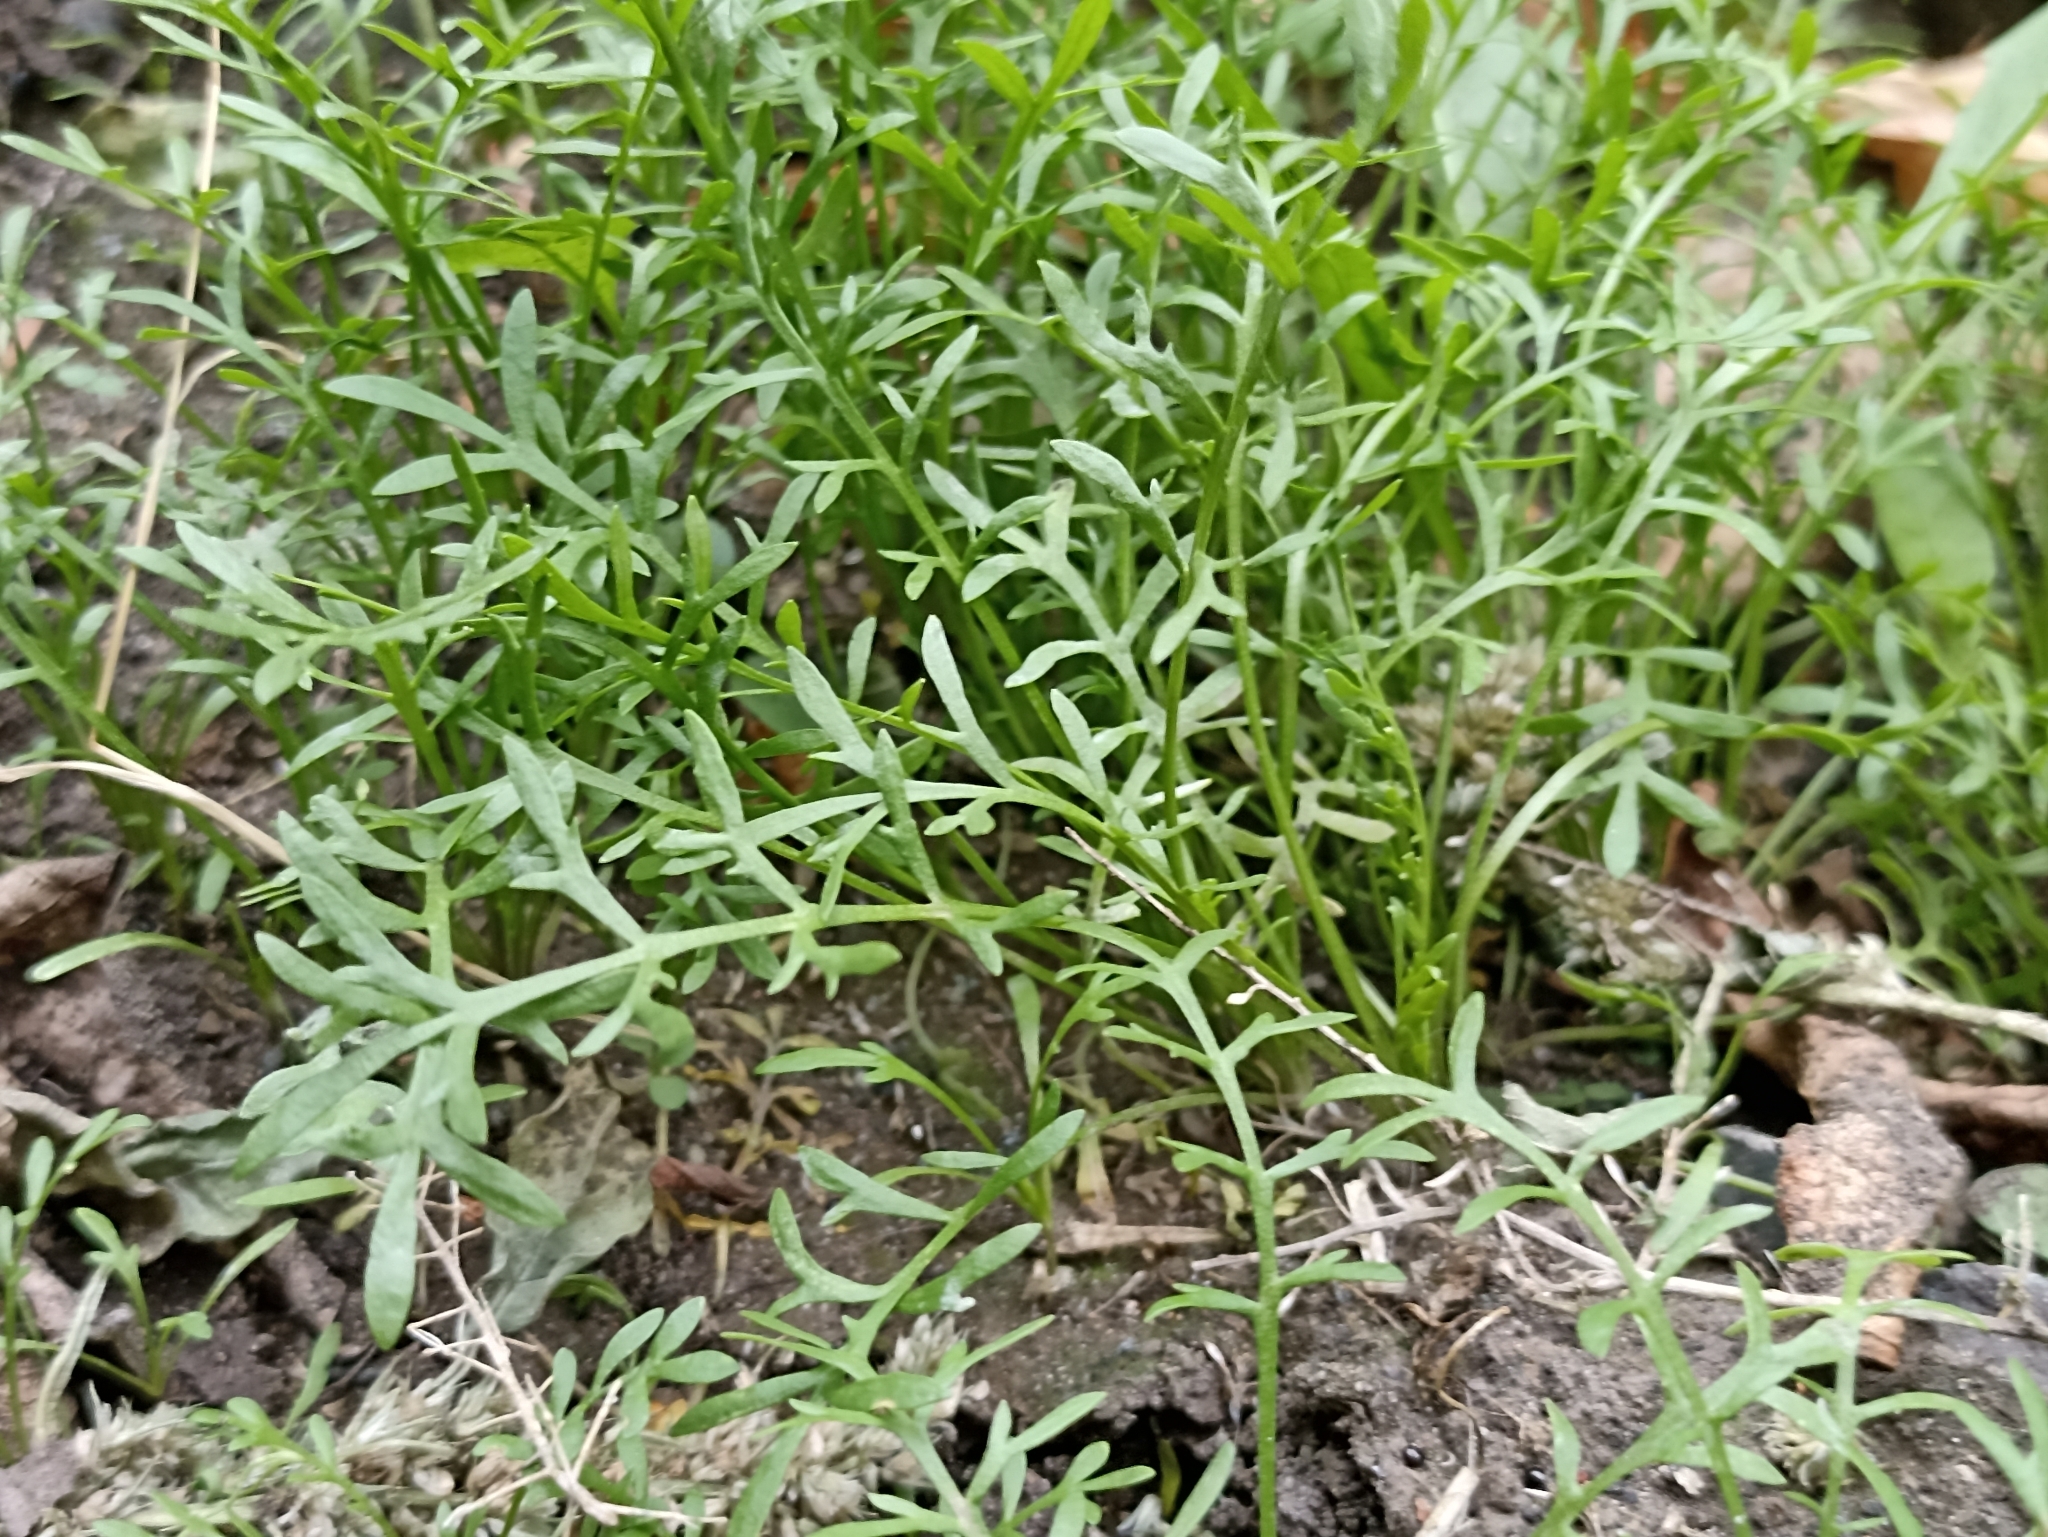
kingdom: Plantae
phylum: Tracheophyta
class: Magnoliopsida
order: Brassicales
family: Brassicaceae
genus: Lepidium
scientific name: Lepidium ruderale
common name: Narrow-leaved pepperwort
